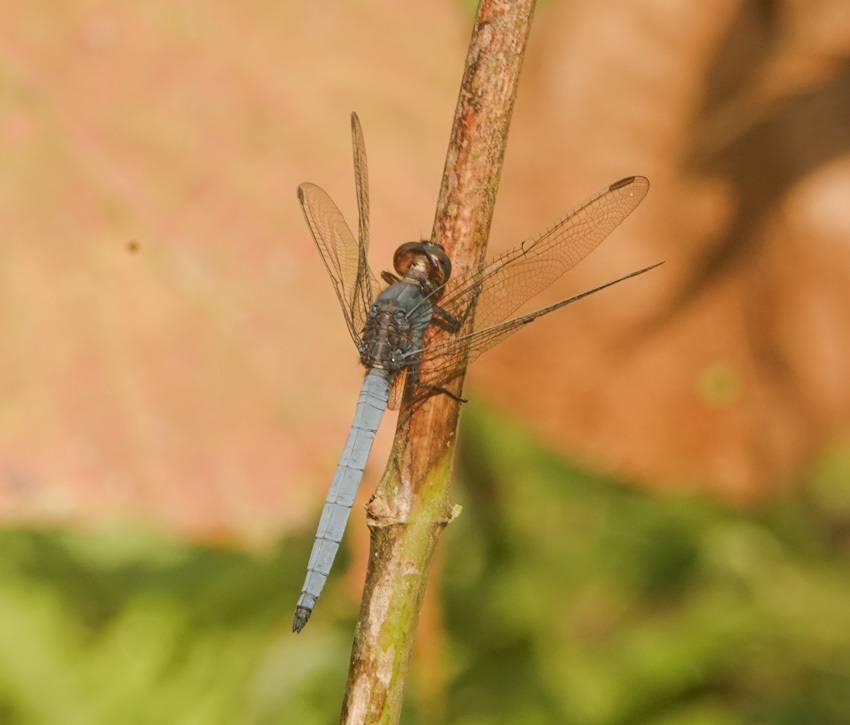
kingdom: Animalia
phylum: Arthropoda
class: Insecta
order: Odonata
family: Libellulidae
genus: Orthetrum
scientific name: Orthetrum glaucum
